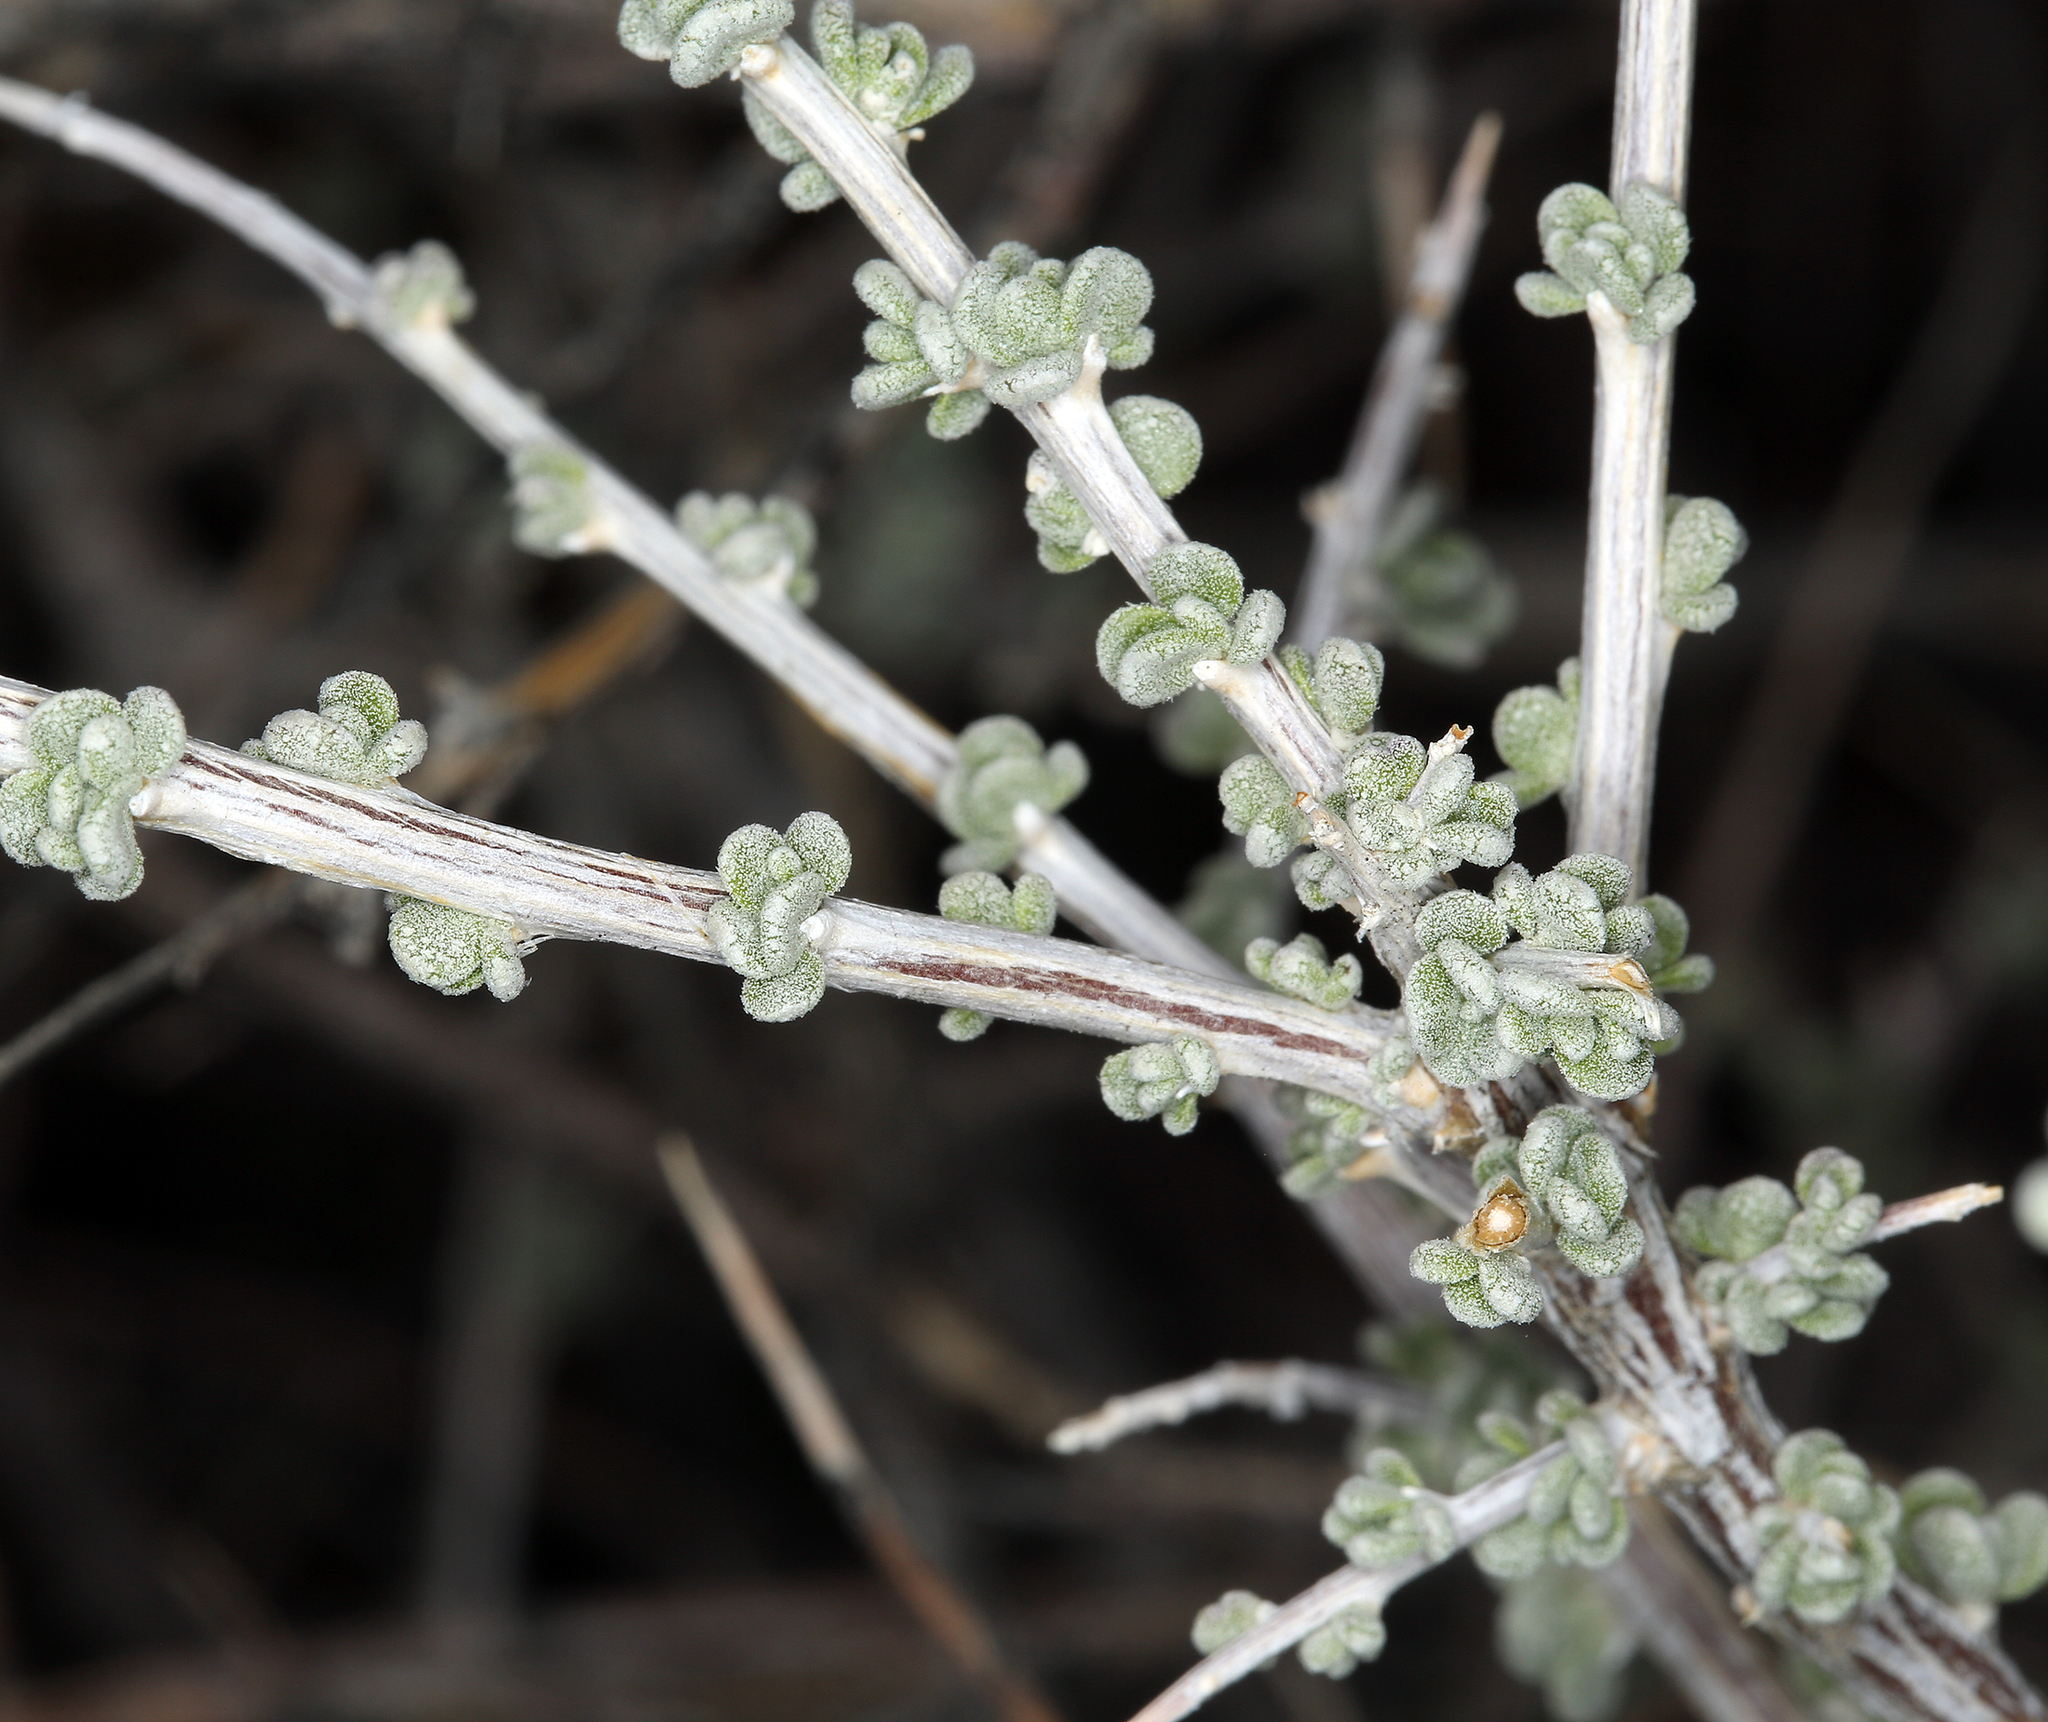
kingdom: Plantae
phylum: Tracheophyta
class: Magnoliopsida
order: Caryophyllales
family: Amaranthaceae
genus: Grayia
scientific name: Grayia spinosa
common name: Spiny hopsage
